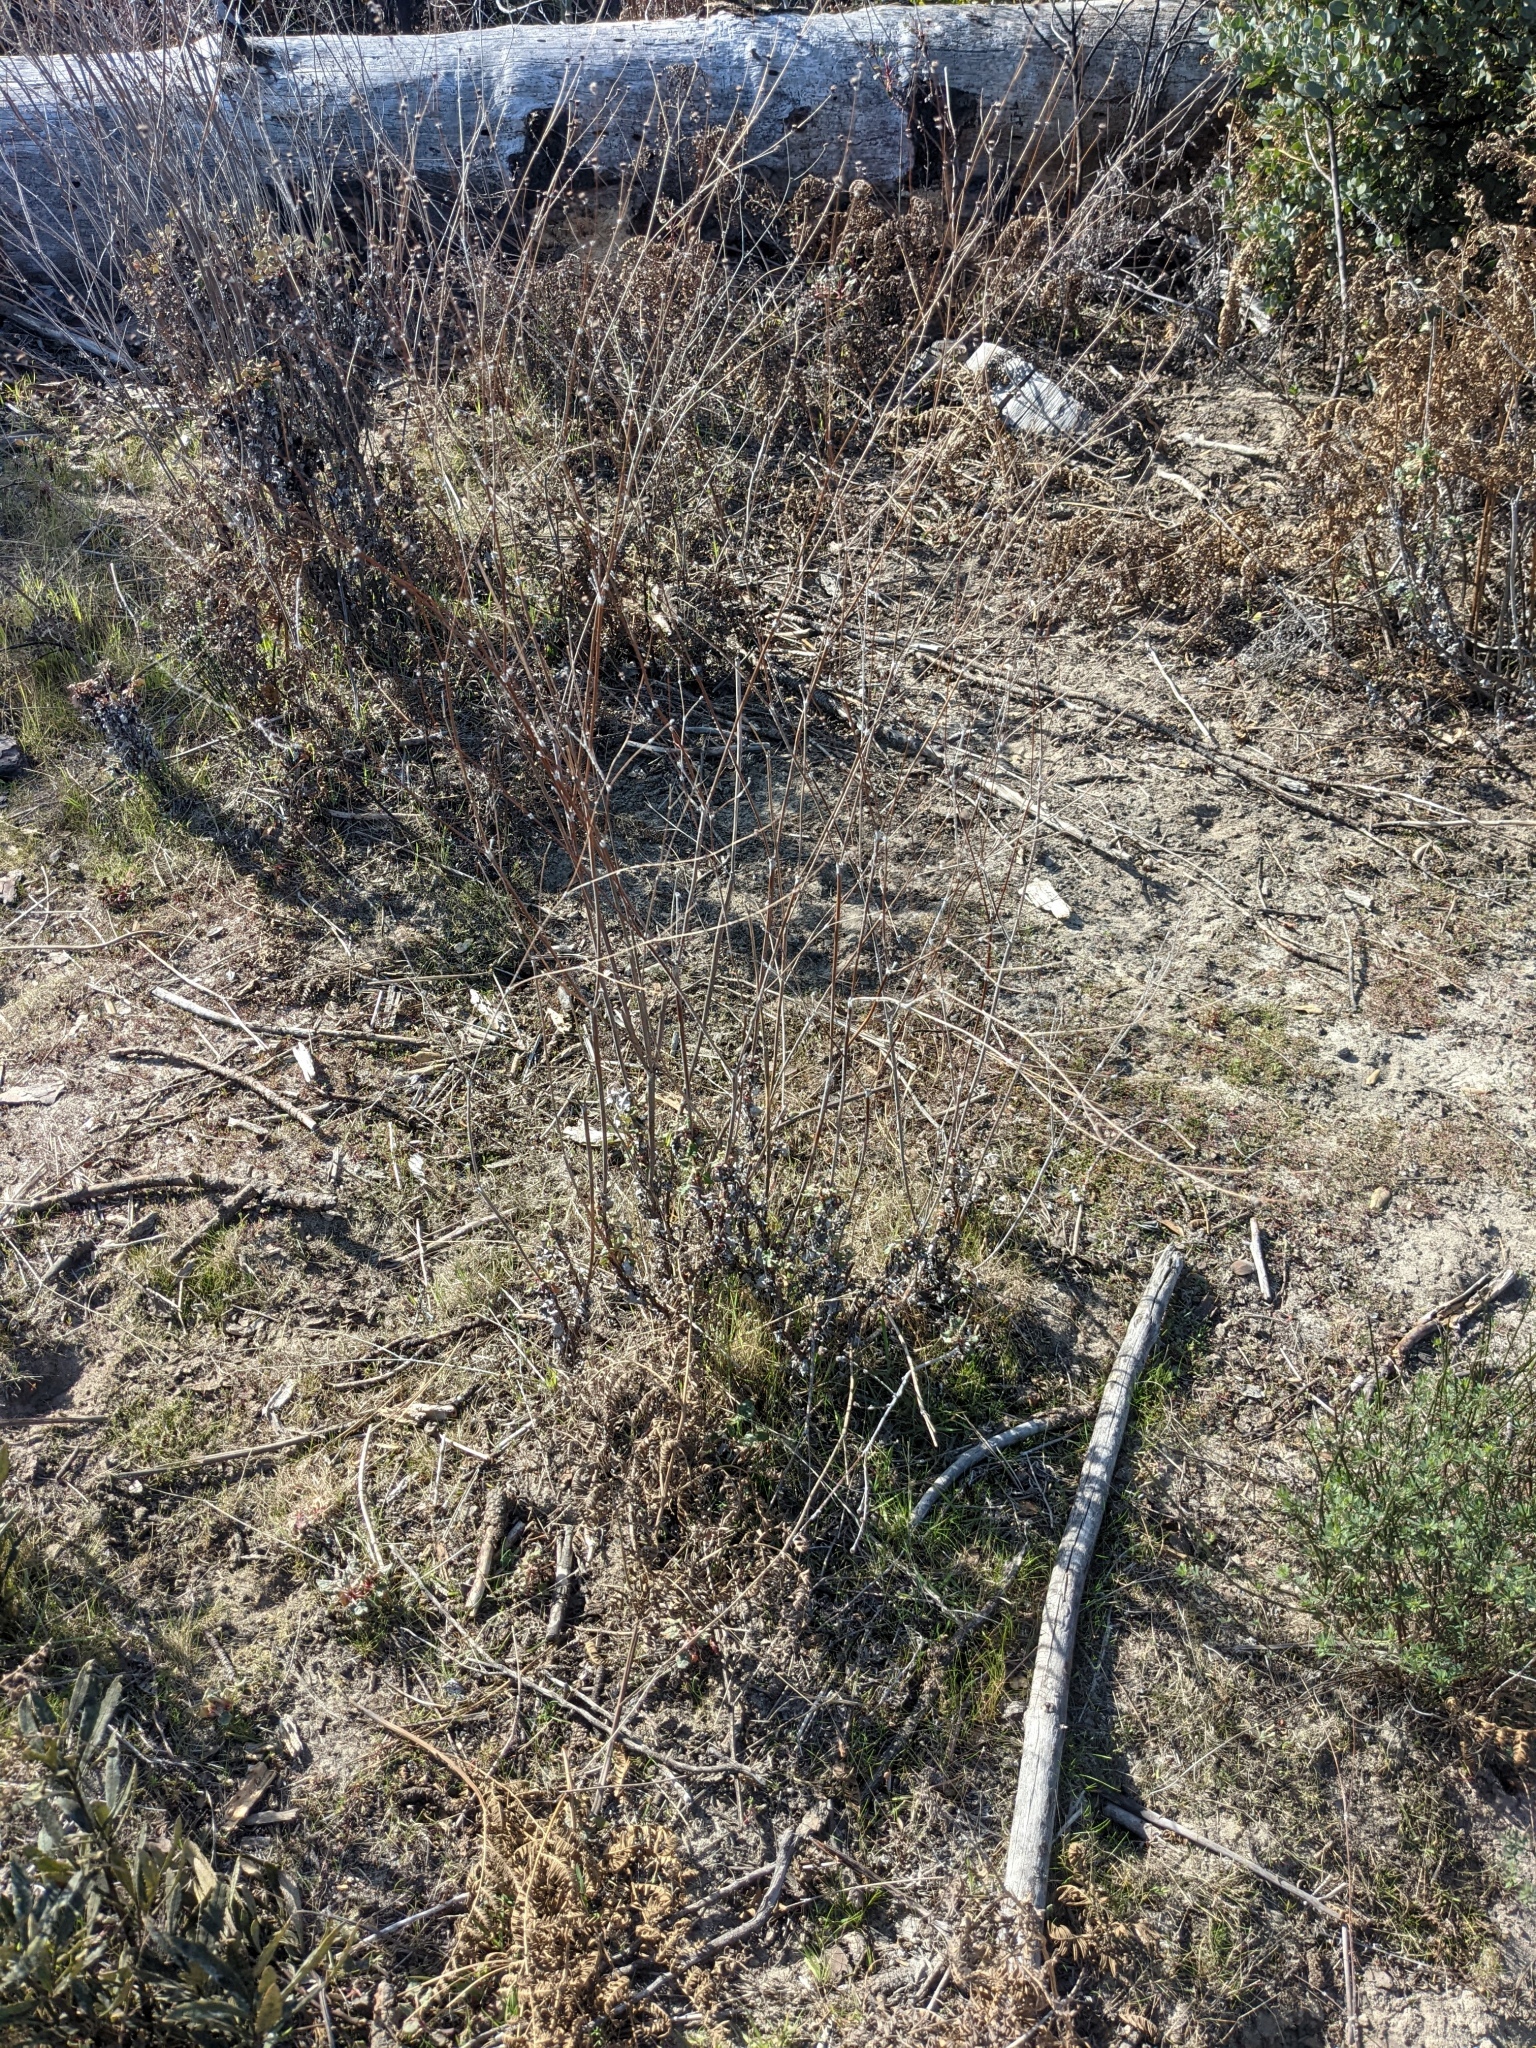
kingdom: Plantae
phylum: Tracheophyta
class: Magnoliopsida
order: Caryophyllales
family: Polygonaceae
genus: Eriogonum
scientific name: Eriogonum nudum
